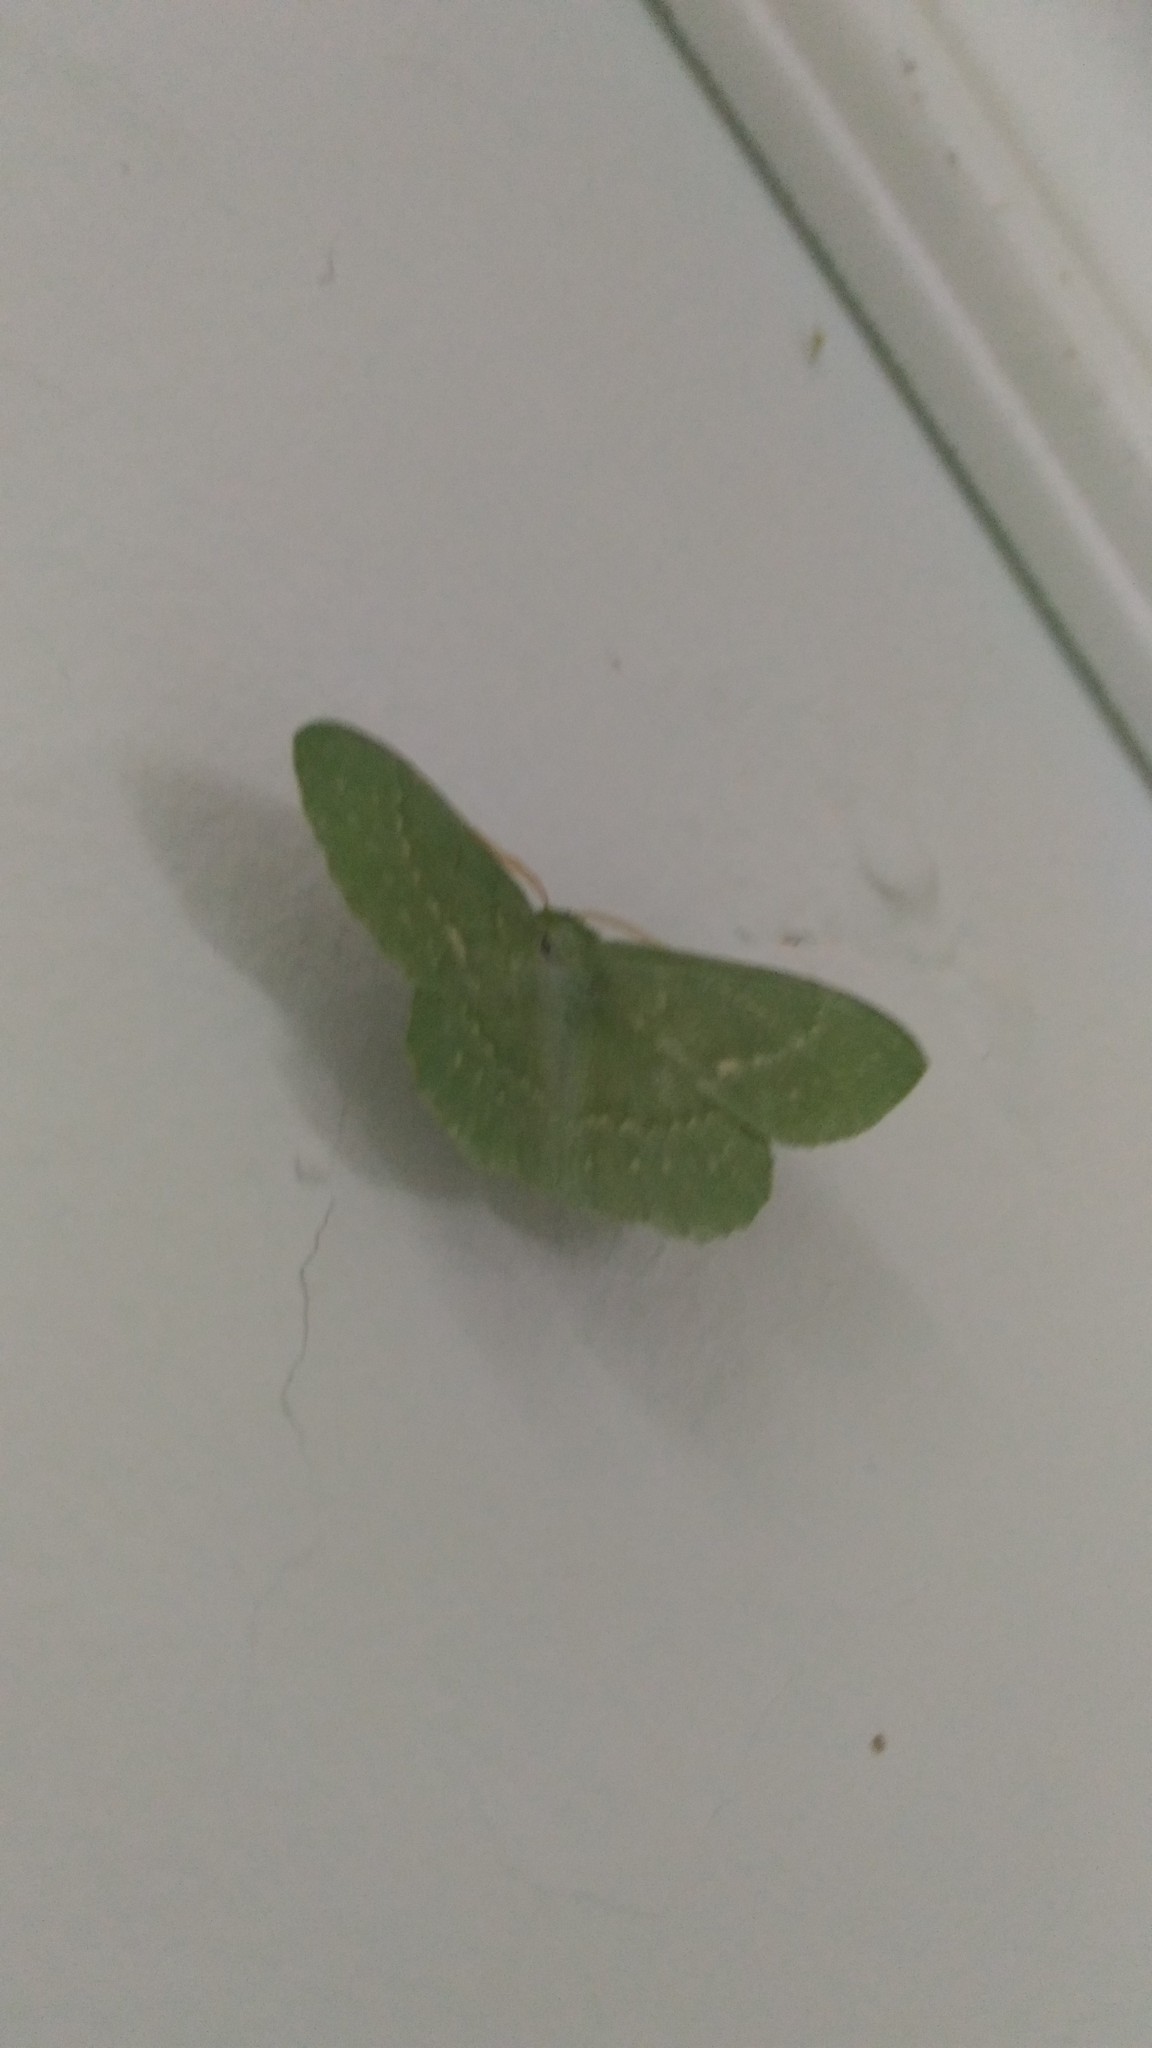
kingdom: Animalia
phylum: Arthropoda
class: Insecta
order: Lepidoptera
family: Geometridae
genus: Geometra
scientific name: Geometra papilionaria
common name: Large emerald
